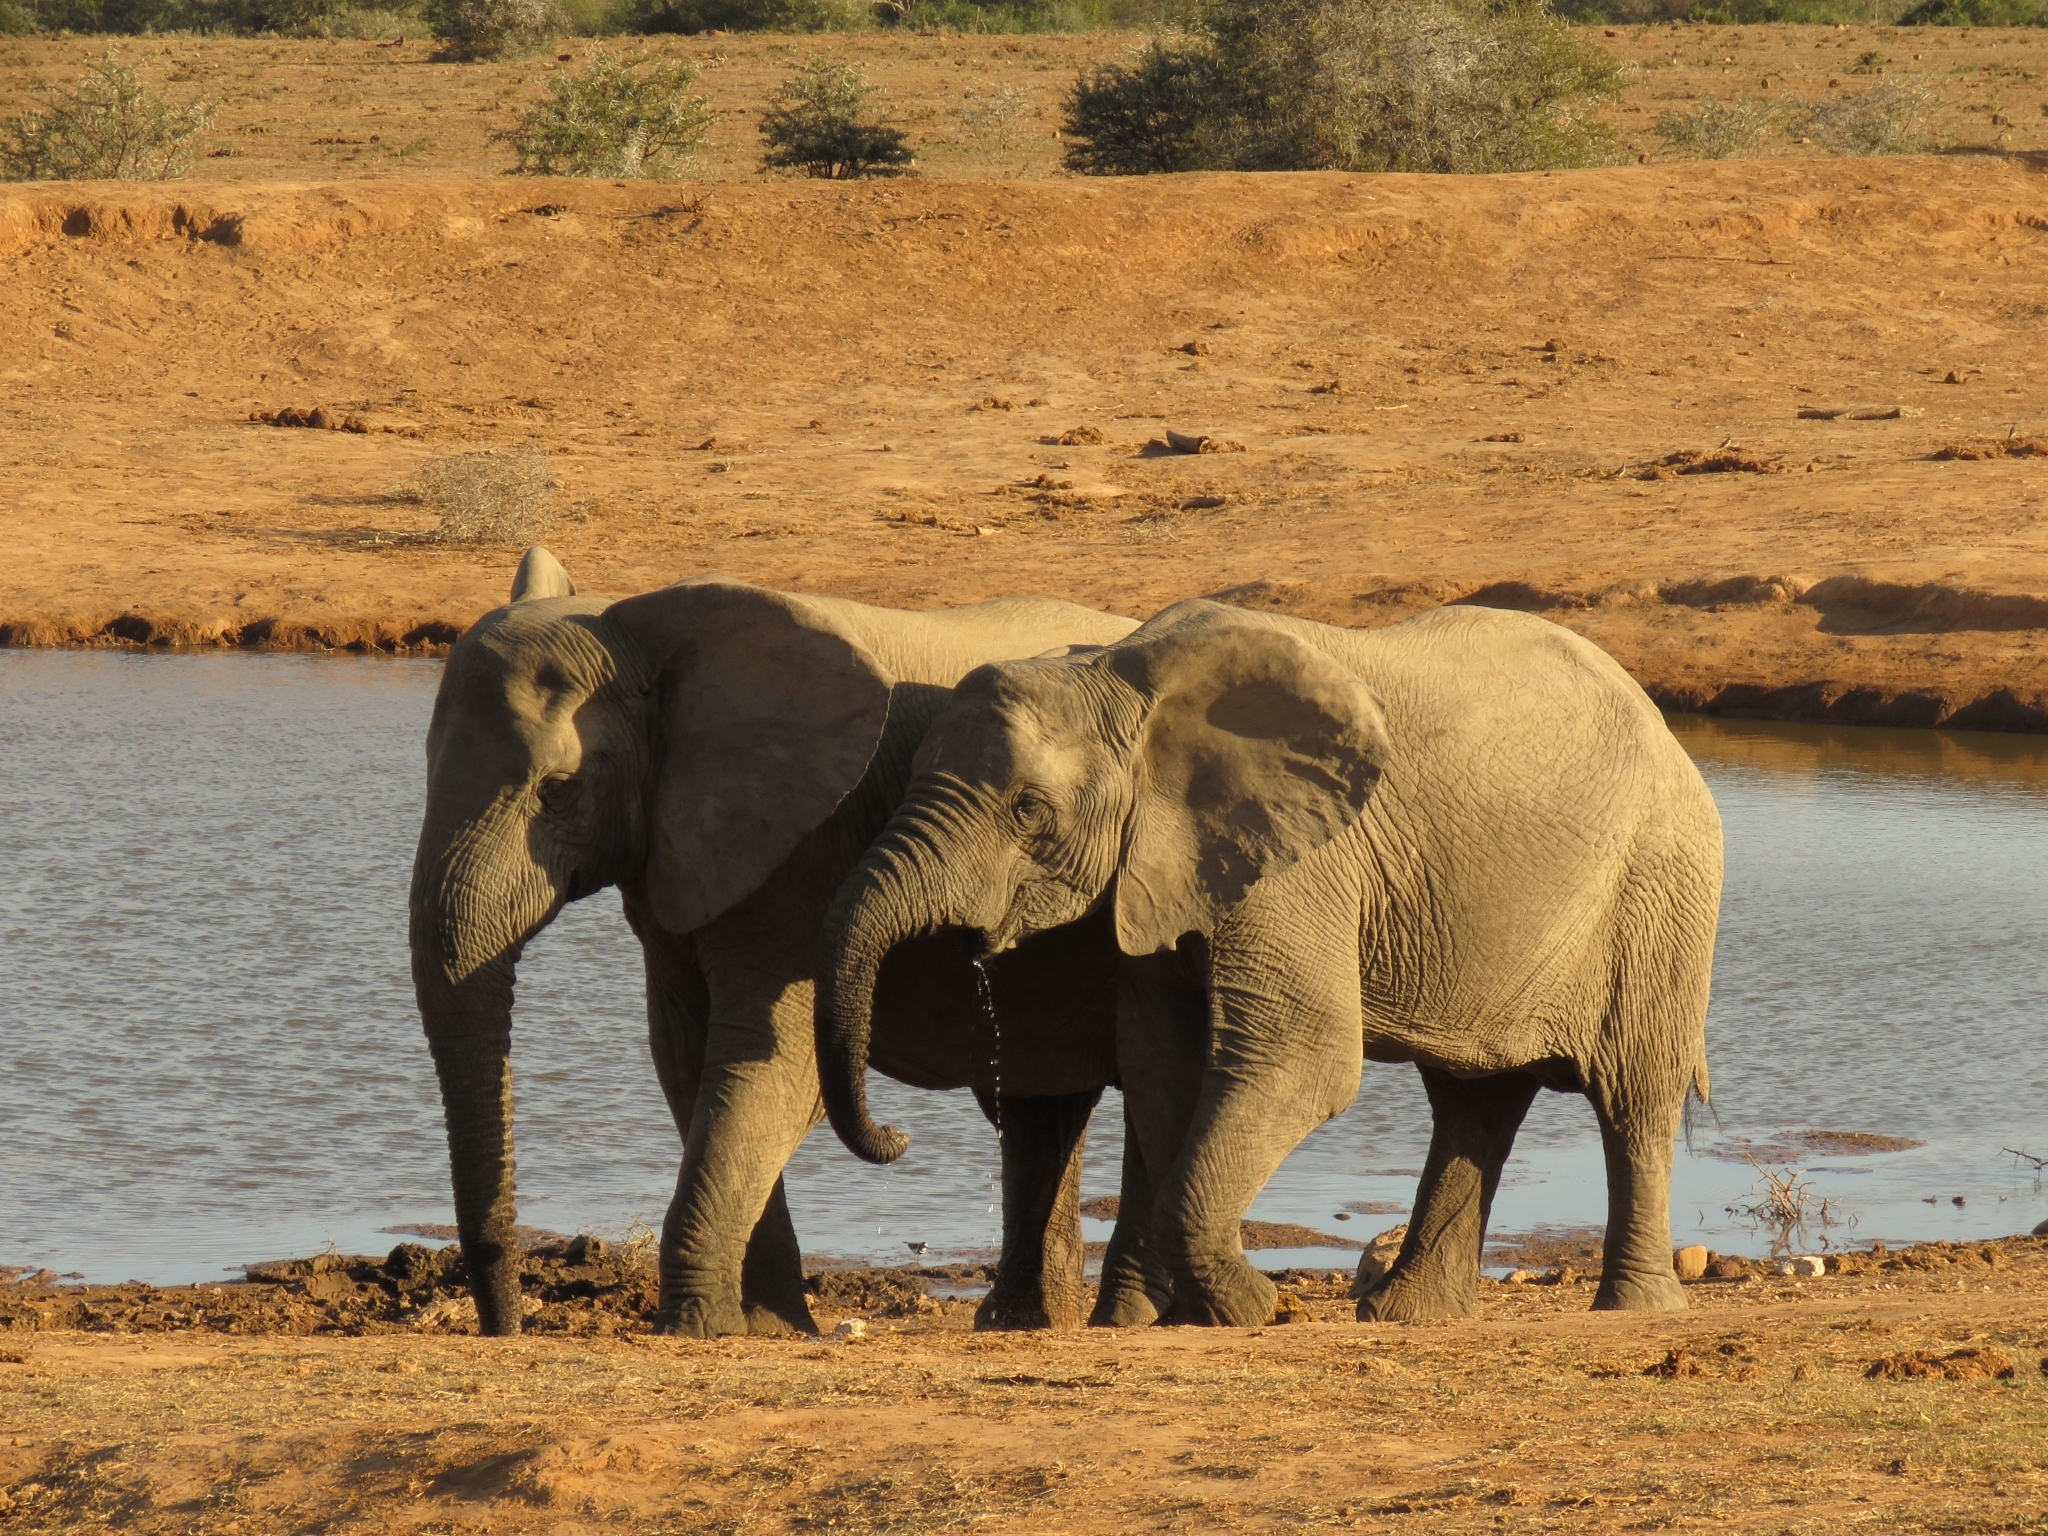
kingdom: Animalia
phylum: Chordata
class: Mammalia
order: Proboscidea
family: Elephantidae
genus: Loxodonta
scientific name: Loxodonta africana
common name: African elephant
